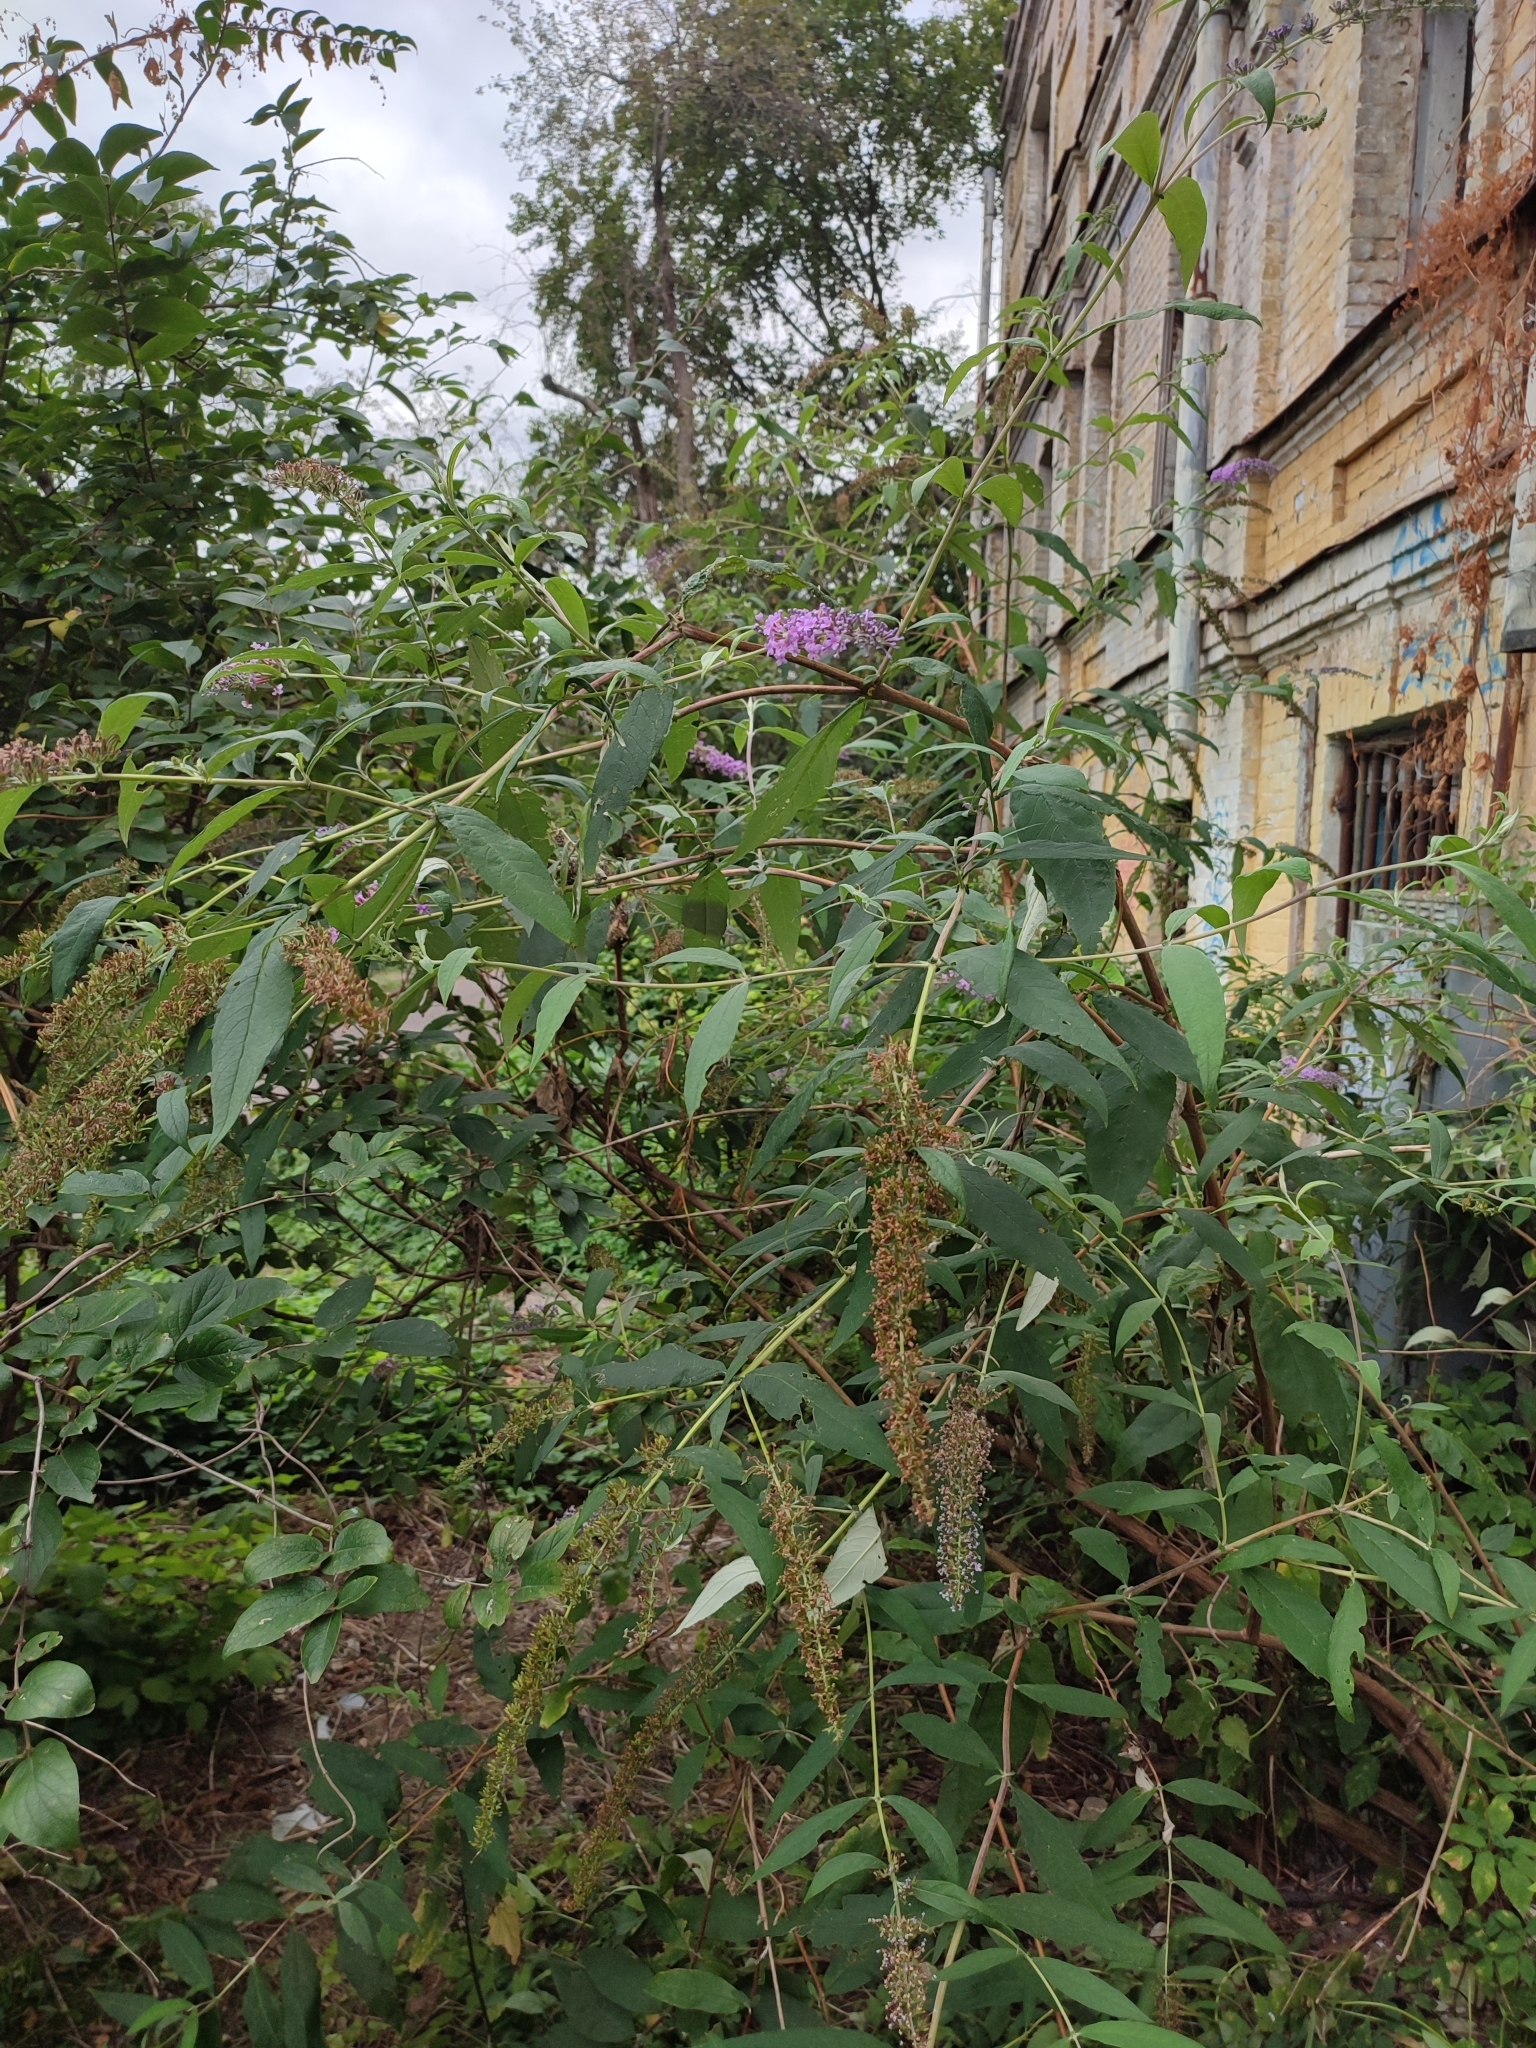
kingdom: Plantae
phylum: Tracheophyta
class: Magnoliopsida
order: Lamiales
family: Scrophulariaceae
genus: Buddleja
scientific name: Buddleja davidii
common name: Butterfly-bush
